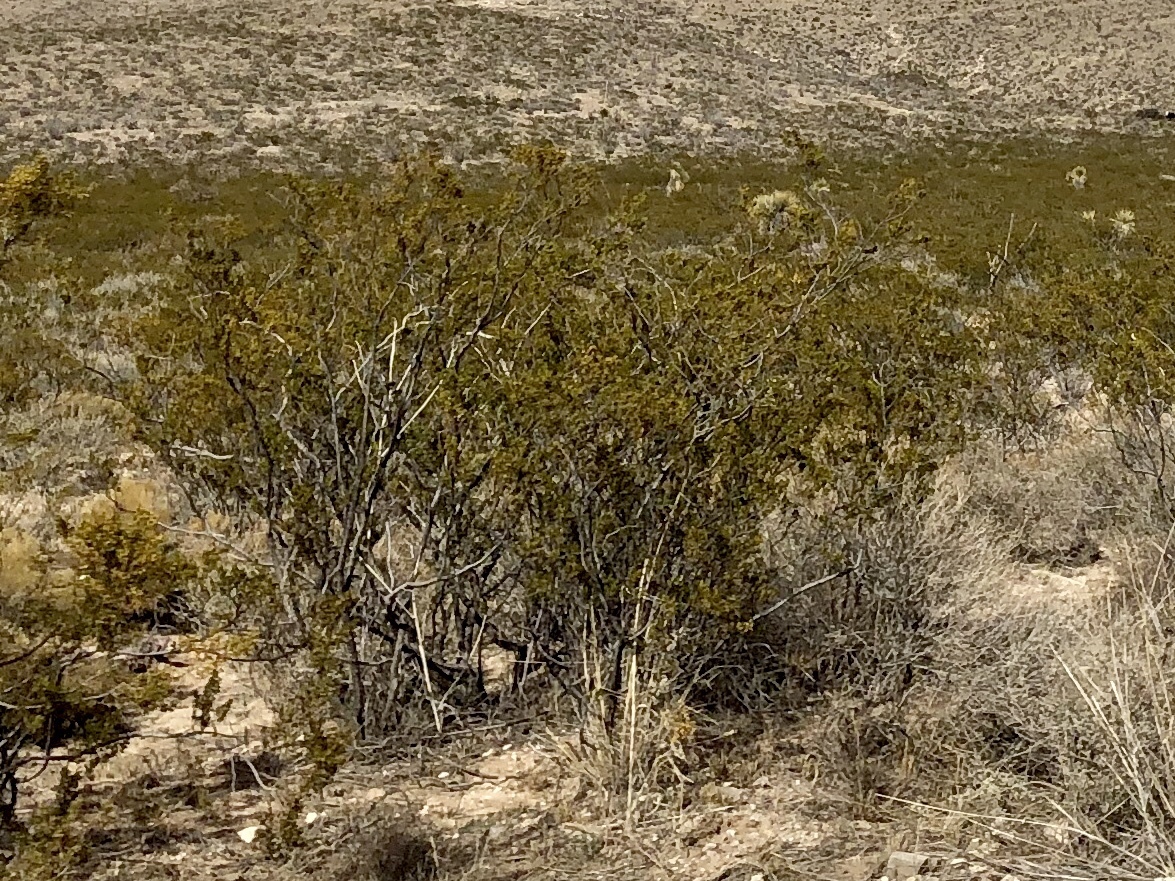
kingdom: Plantae
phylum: Tracheophyta
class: Magnoliopsida
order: Zygophyllales
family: Zygophyllaceae
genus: Larrea
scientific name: Larrea tridentata
